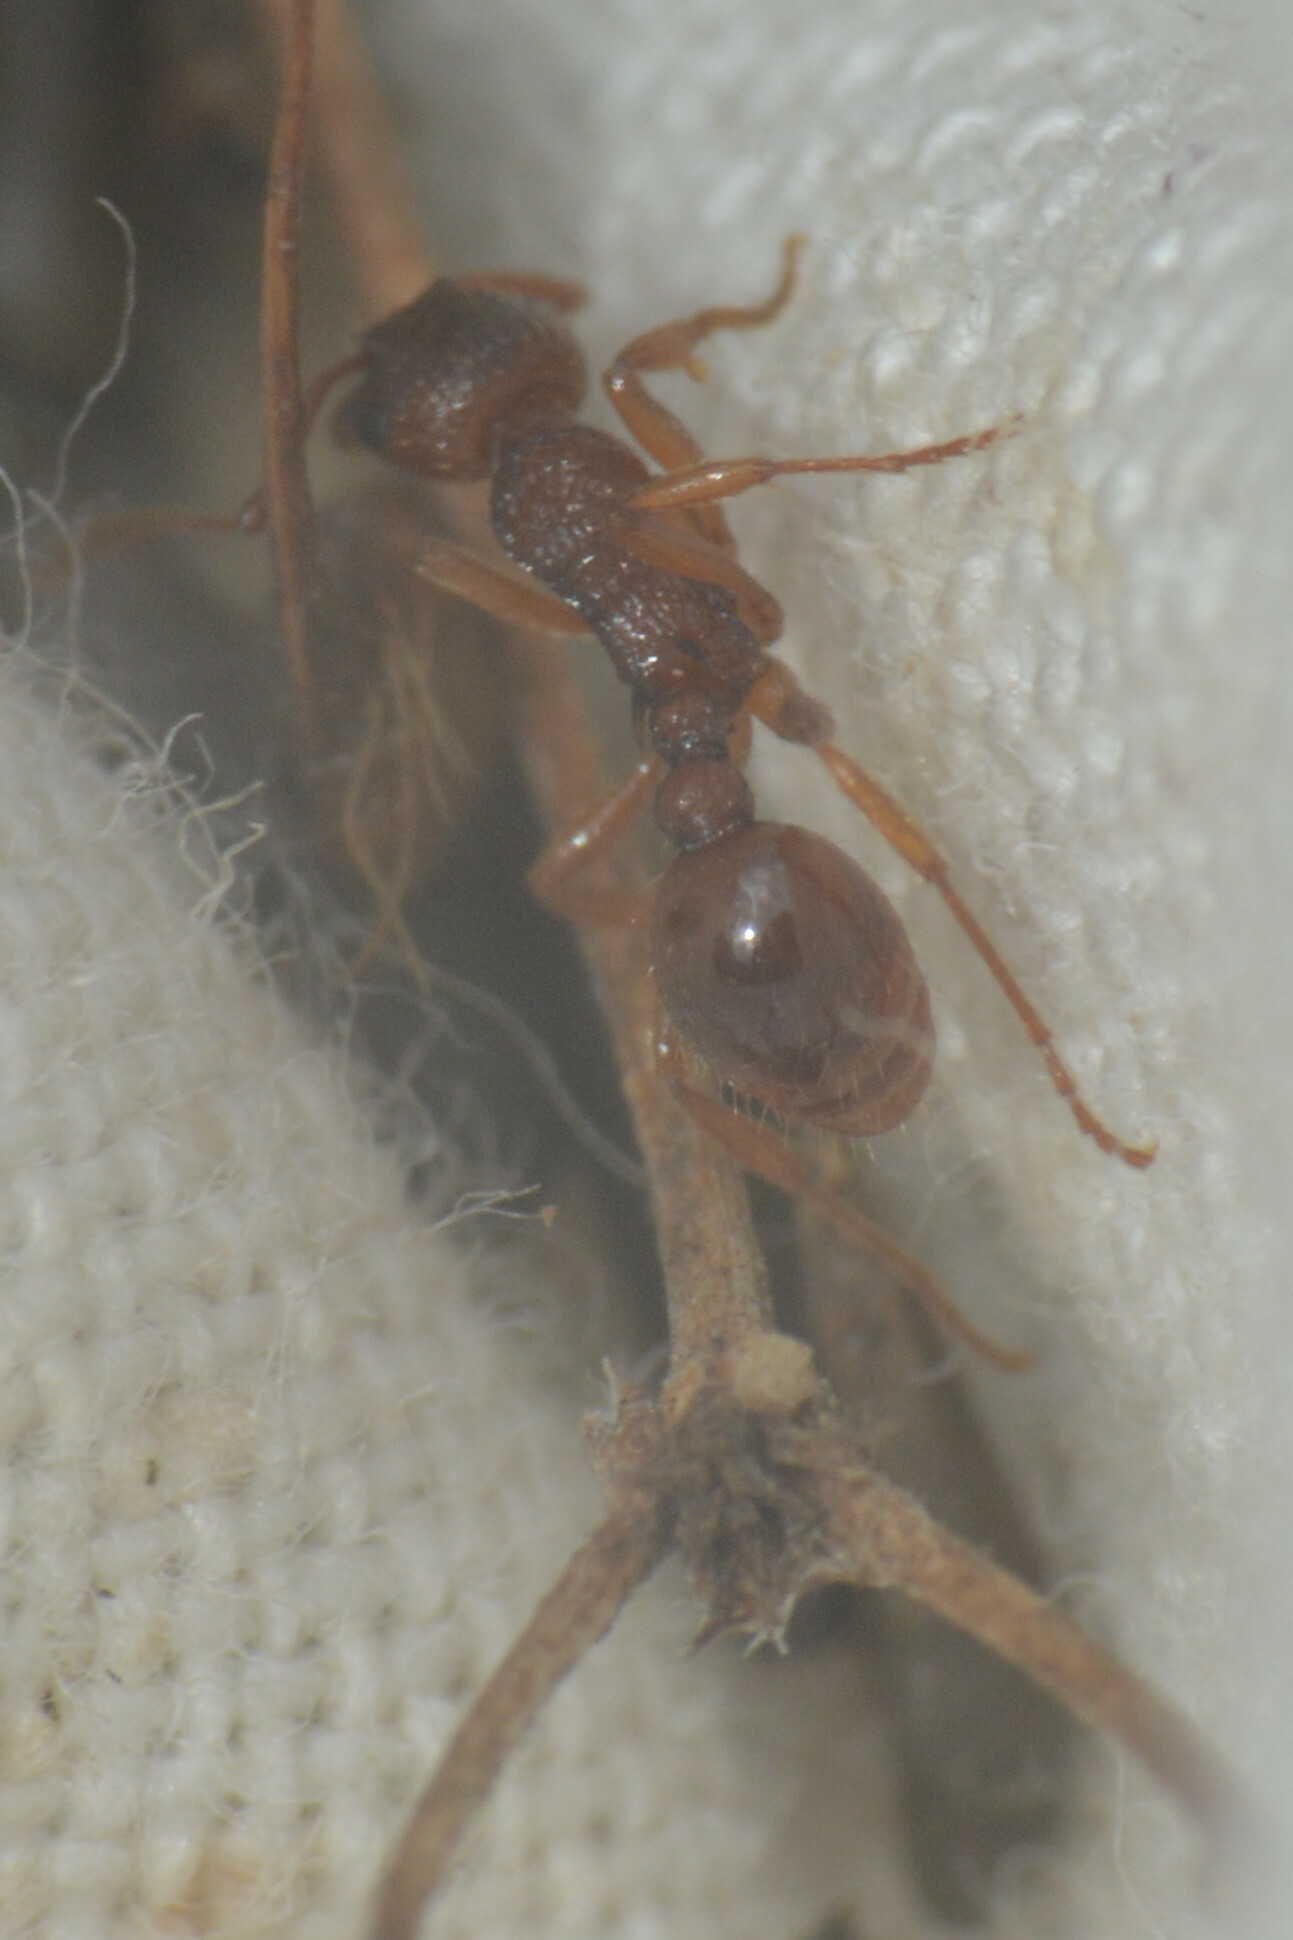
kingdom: Animalia
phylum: Arthropoda
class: Insecta
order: Hymenoptera
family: Formicidae
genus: Myrmica
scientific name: Myrmica ruginodis
